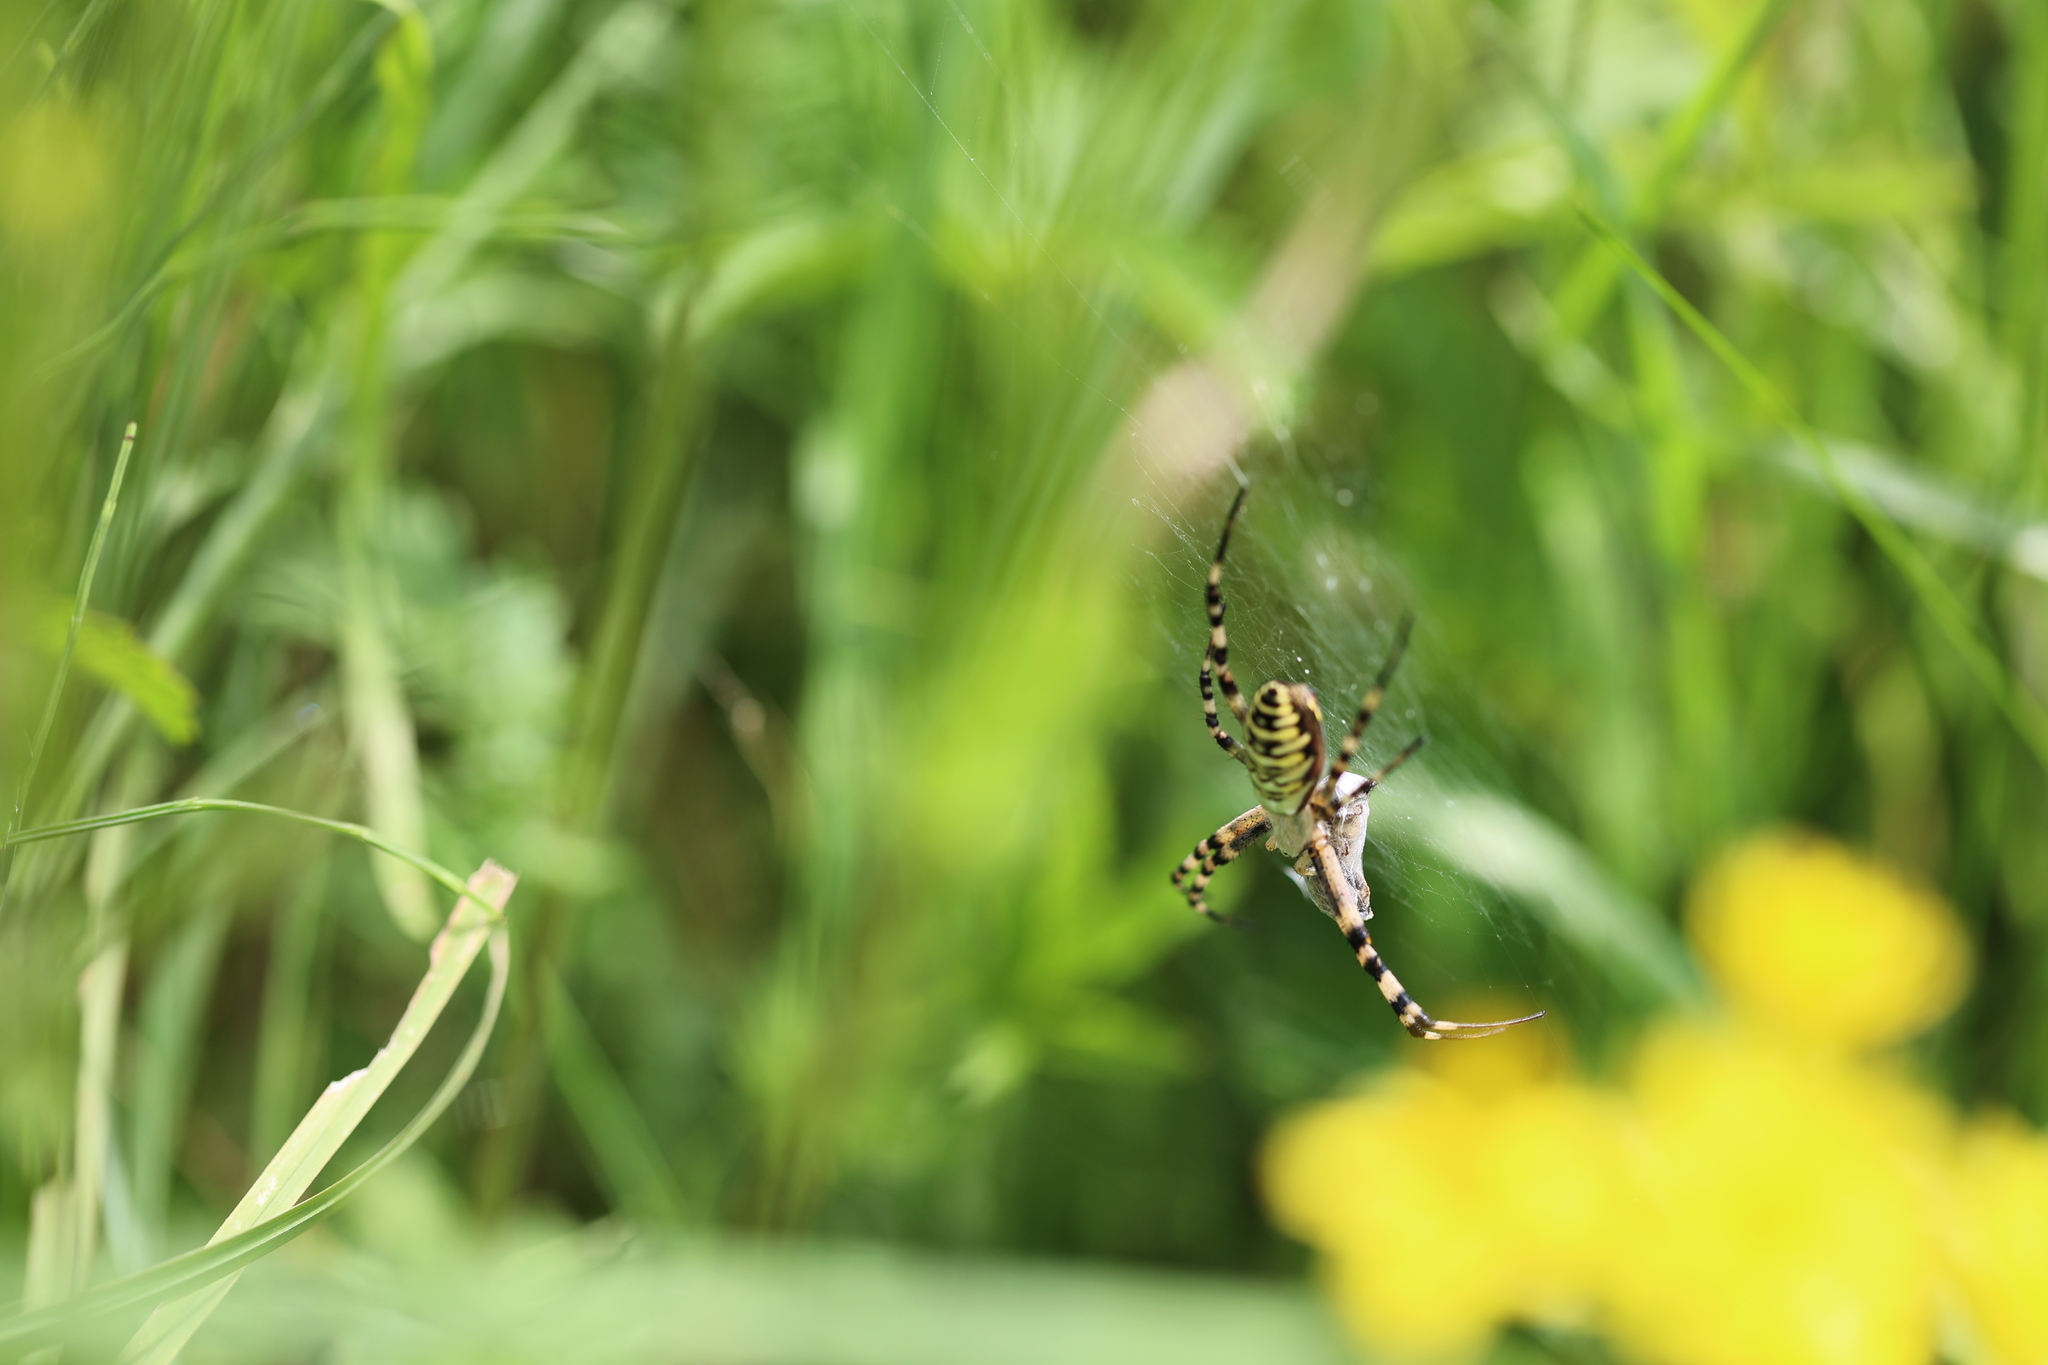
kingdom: Animalia
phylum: Arthropoda
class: Arachnida
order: Araneae
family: Araneidae
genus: Argiope
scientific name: Argiope bruennichi
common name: Wasp spider
